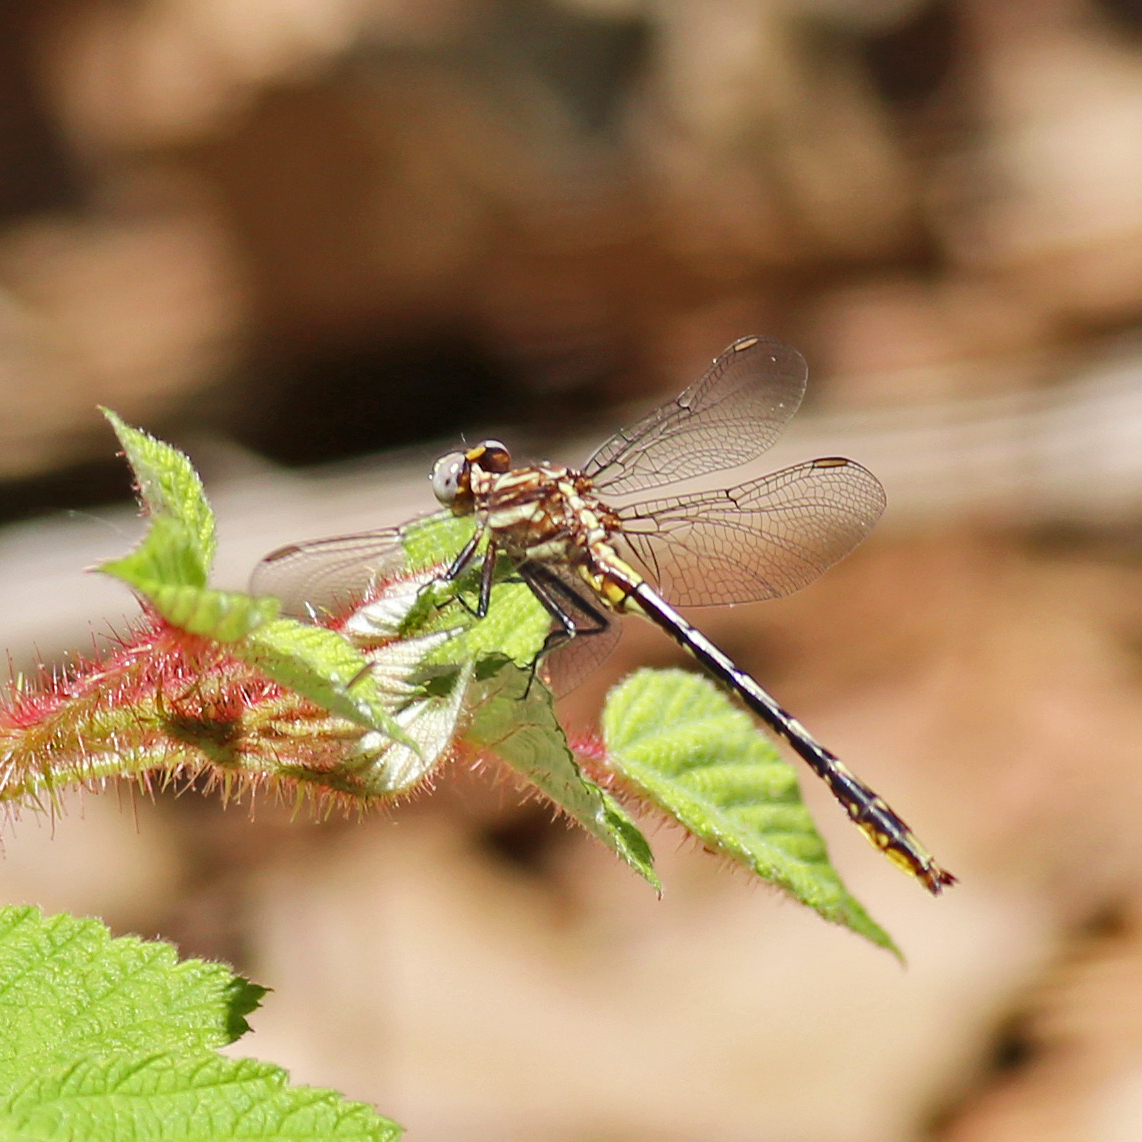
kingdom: Animalia
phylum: Arthropoda
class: Insecta
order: Odonata
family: Gomphidae
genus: Phanogomphus
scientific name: Phanogomphus exilis
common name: Lancet clubtail
